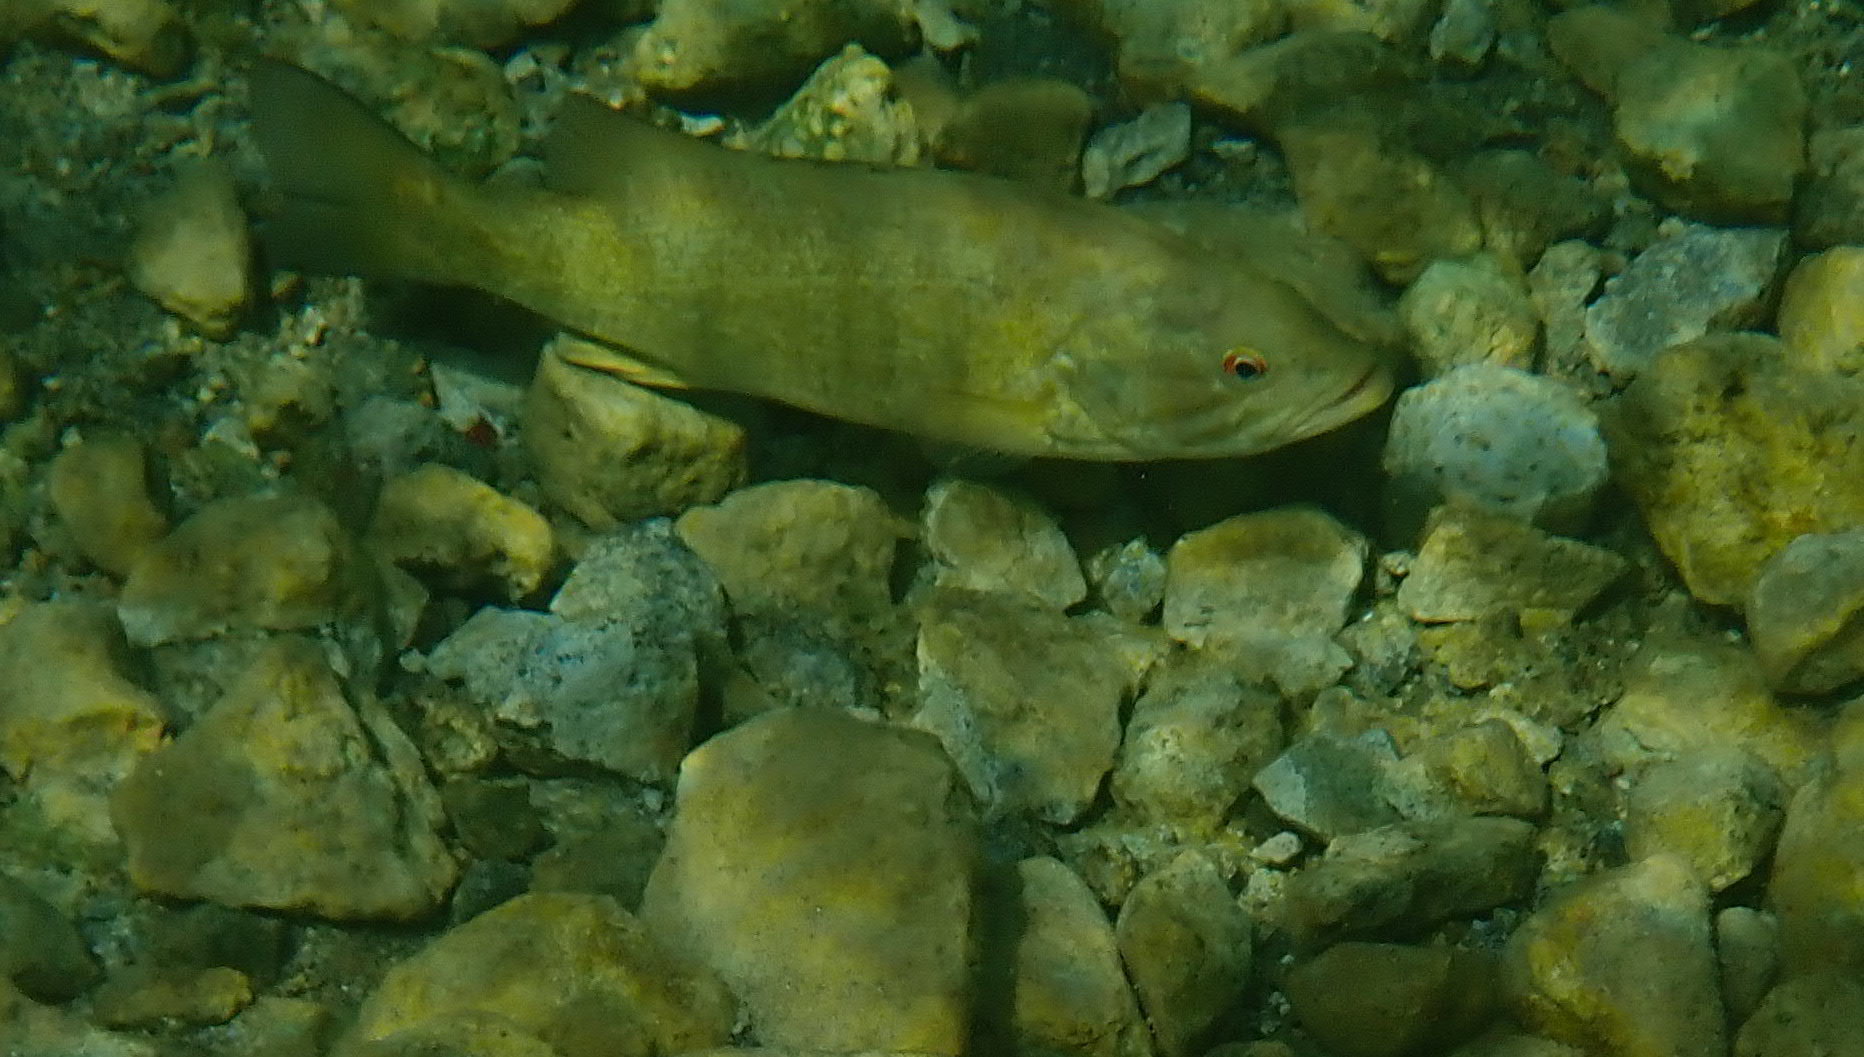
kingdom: Animalia
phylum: Chordata
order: Perciformes
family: Centrarchidae
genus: Micropterus
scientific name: Micropterus dolomieu
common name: Smallmouth bass
